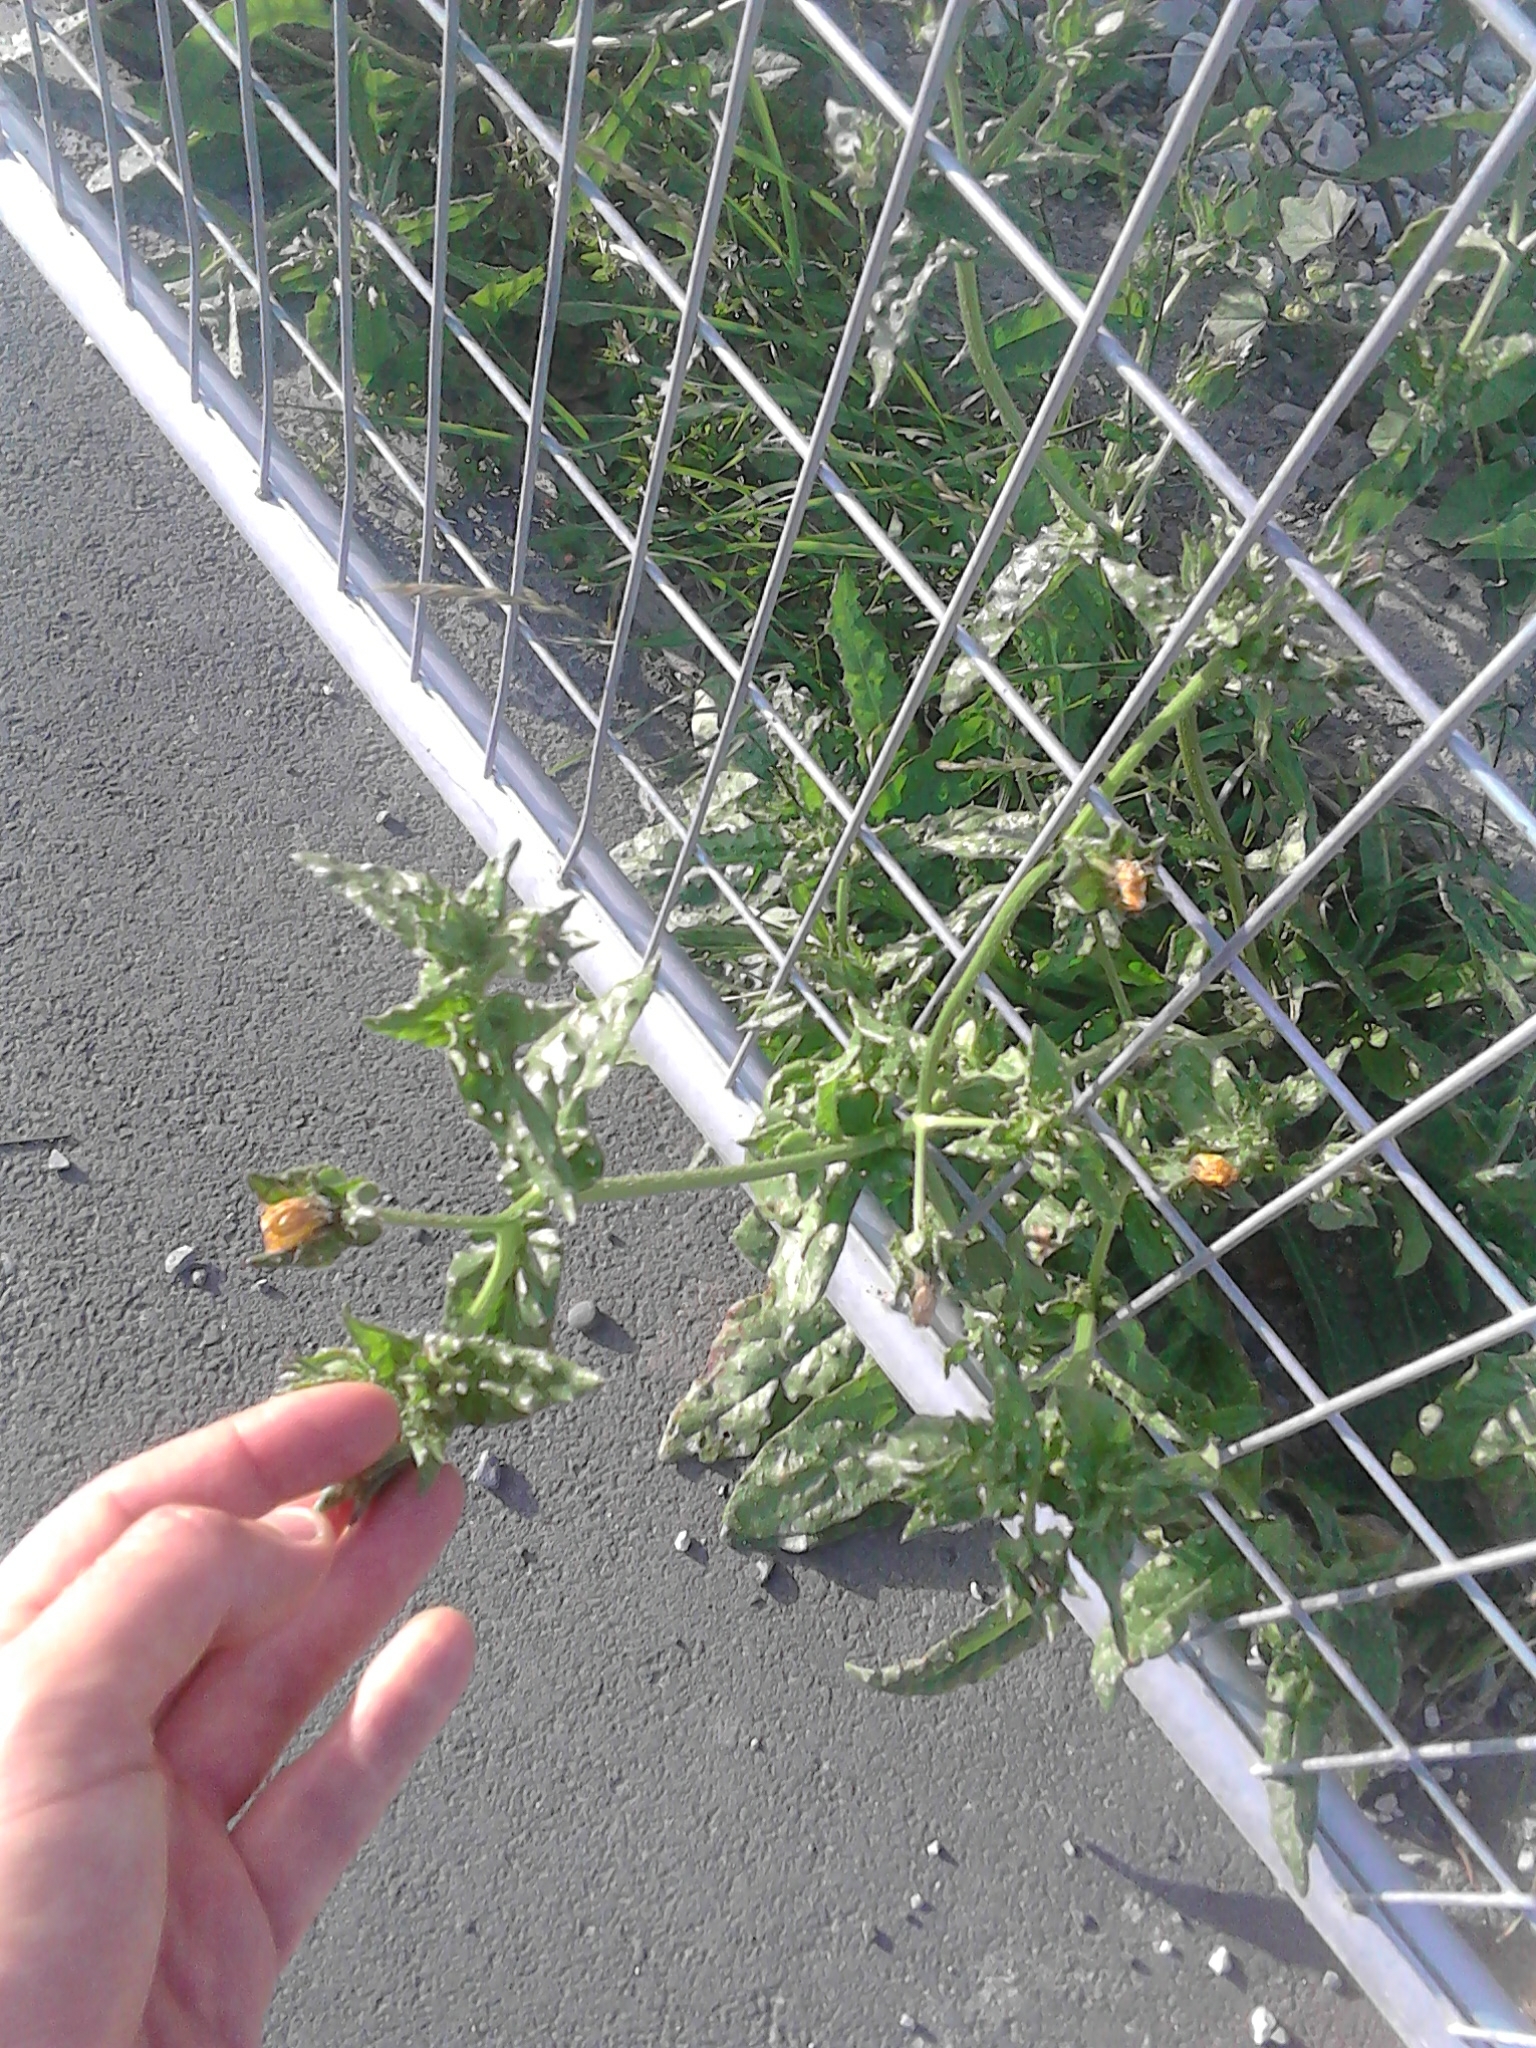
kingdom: Plantae
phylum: Tracheophyta
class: Magnoliopsida
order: Asterales
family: Asteraceae
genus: Helminthotheca
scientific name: Helminthotheca echioides
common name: Ox-tongue
